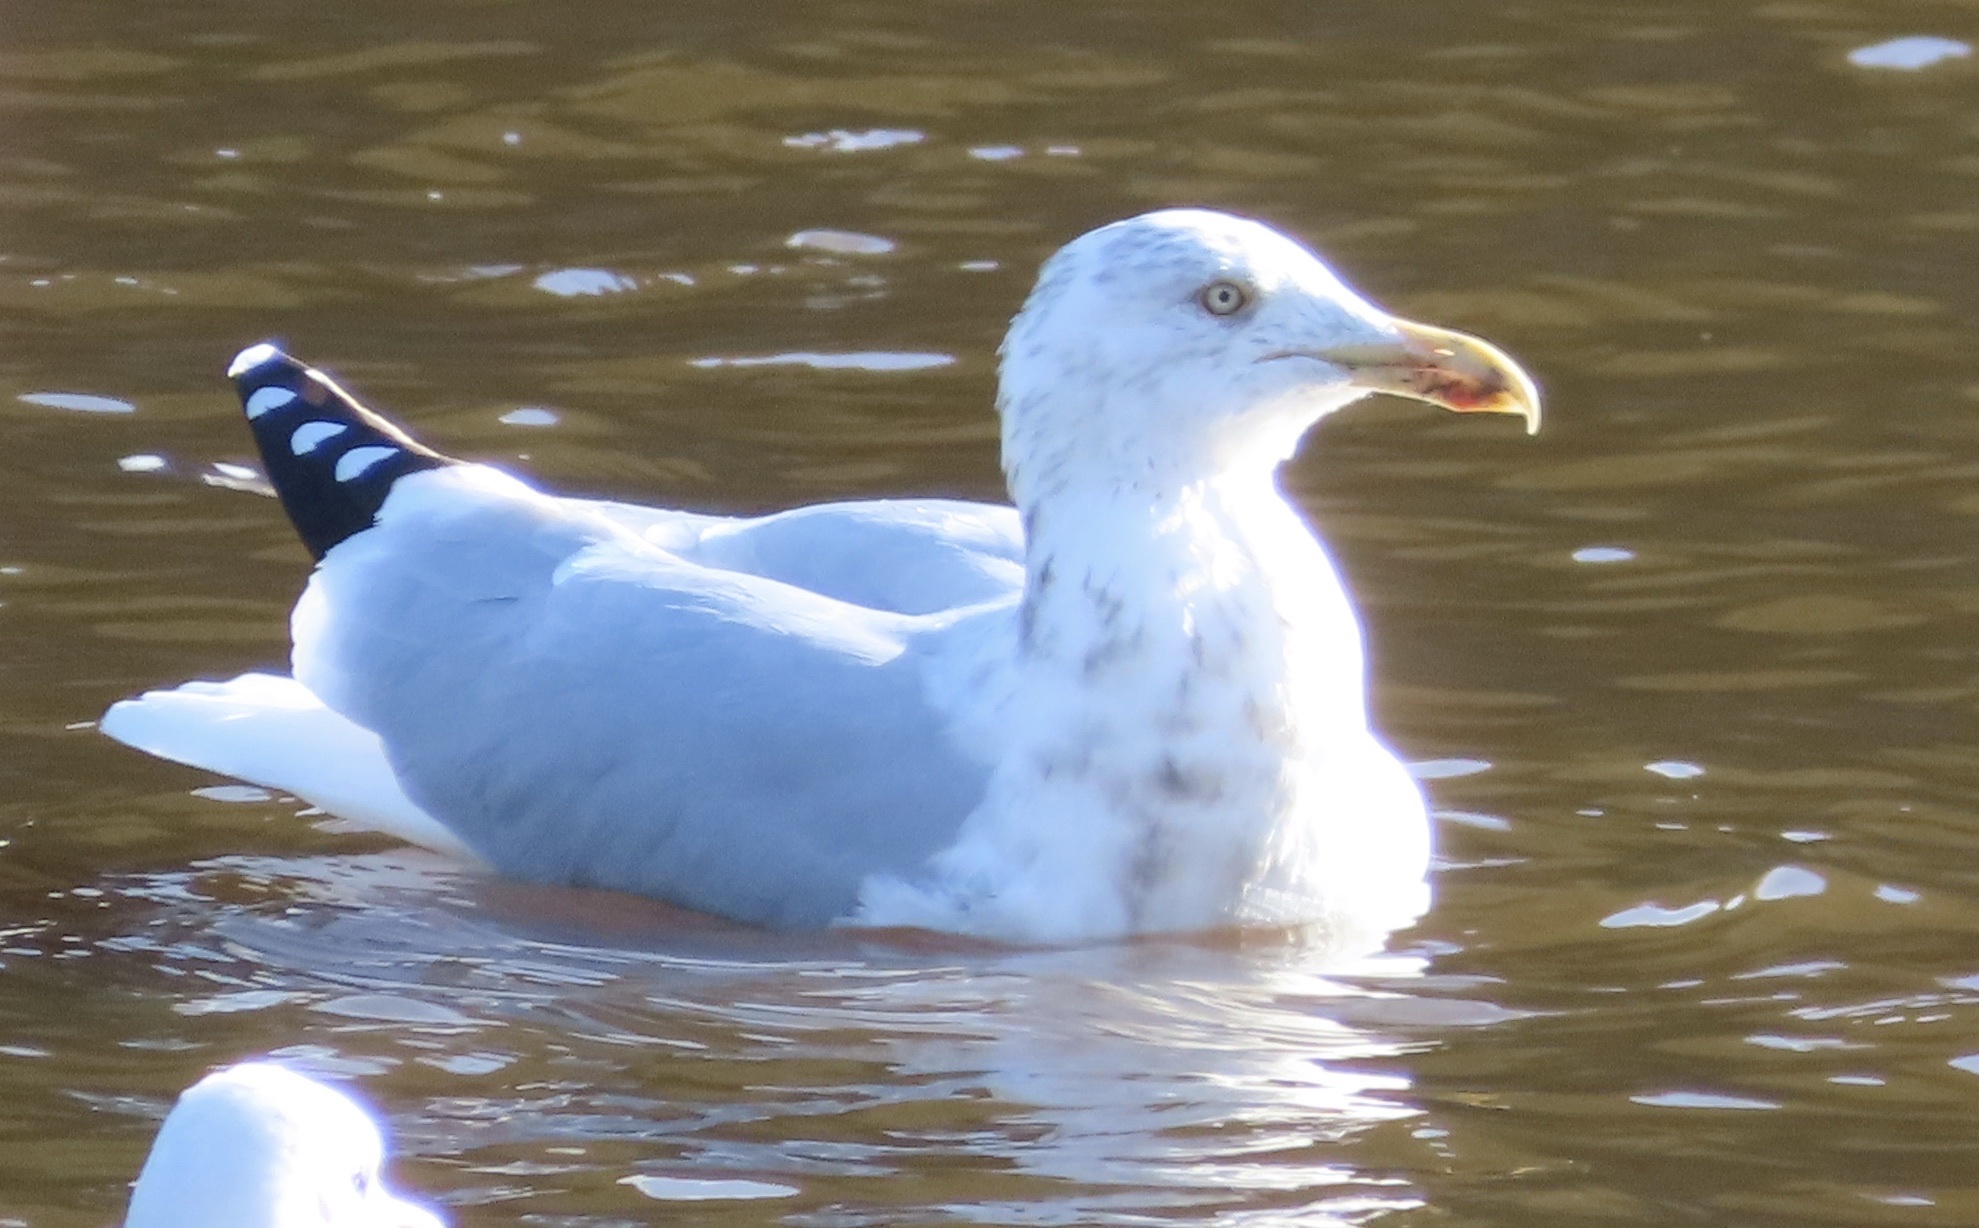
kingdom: Animalia
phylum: Chordata
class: Aves
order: Charadriiformes
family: Laridae
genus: Larus
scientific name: Larus argentatus
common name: Herring gull
